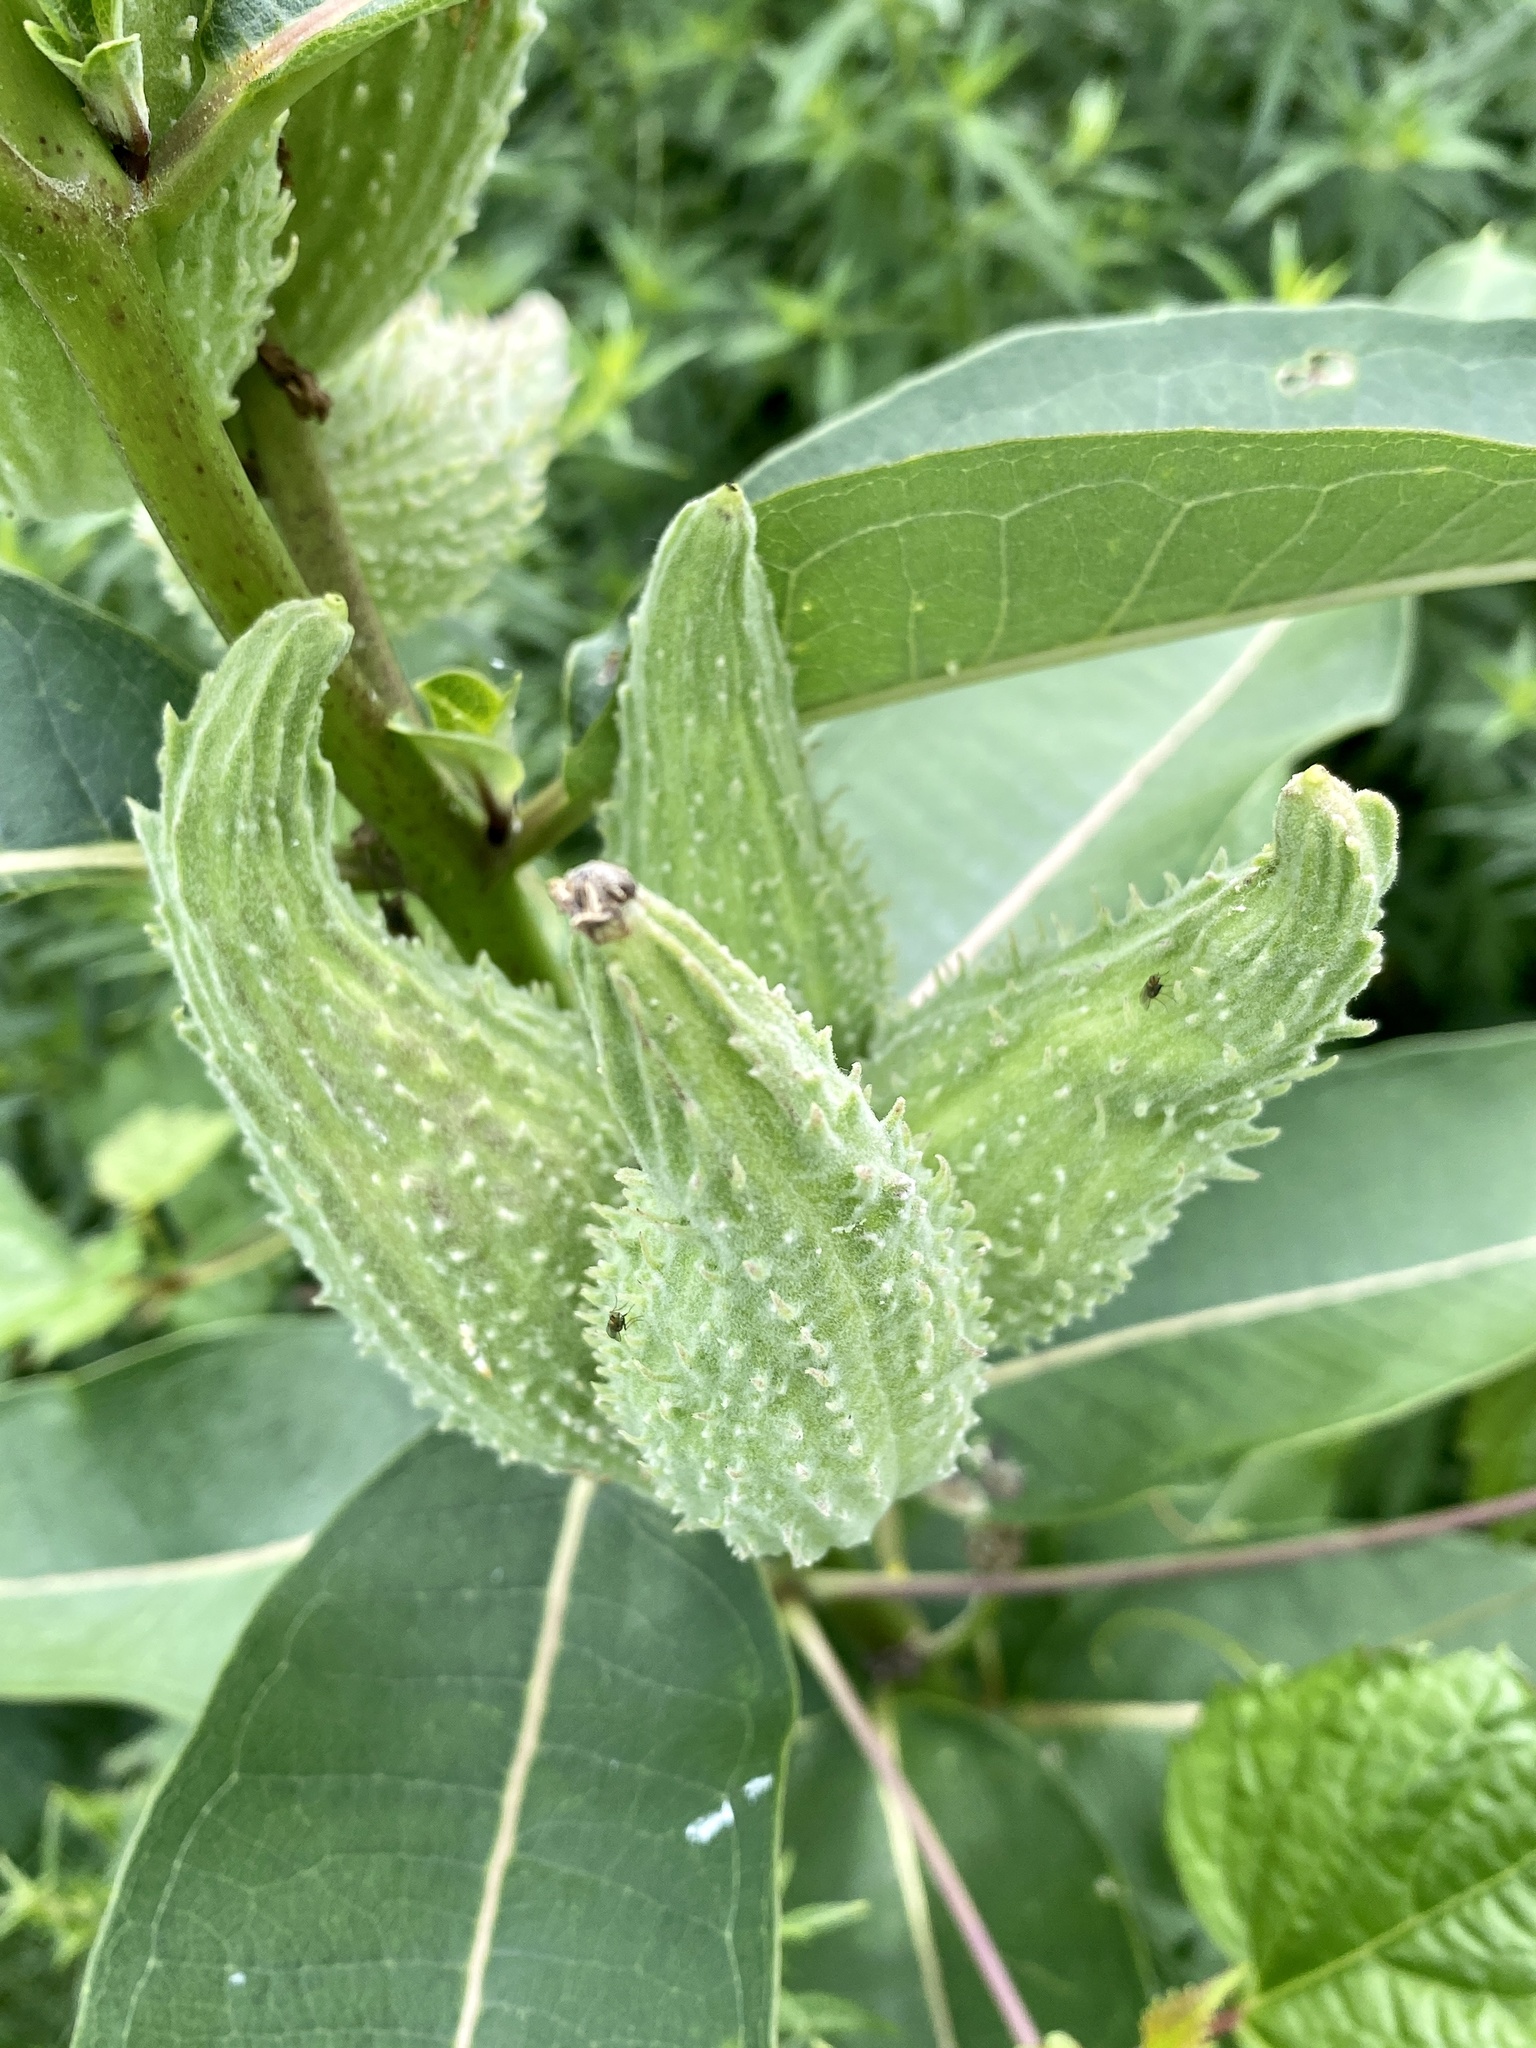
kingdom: Plantae
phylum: Tracheophyta
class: Magnoliopsida
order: Gentianales
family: Apocynaceae
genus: Asclepias
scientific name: Asclepias syriaca
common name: Common milkweed
